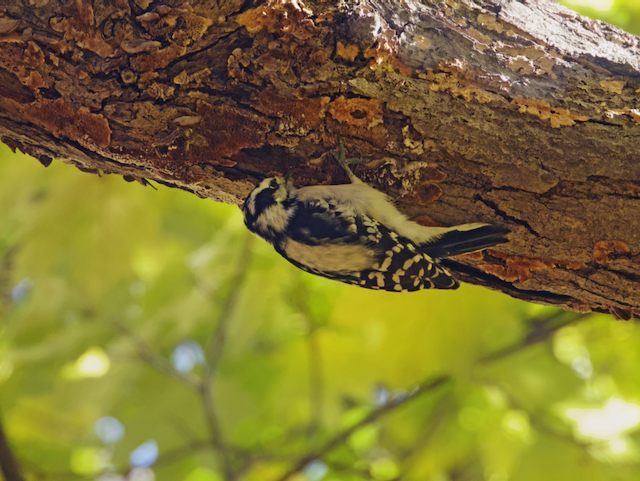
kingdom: Animalia
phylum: Chordata
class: Aves
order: Piciformes
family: Picidae
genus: Dryobates
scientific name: Dryobates pubescens
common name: Downy woodpecker
